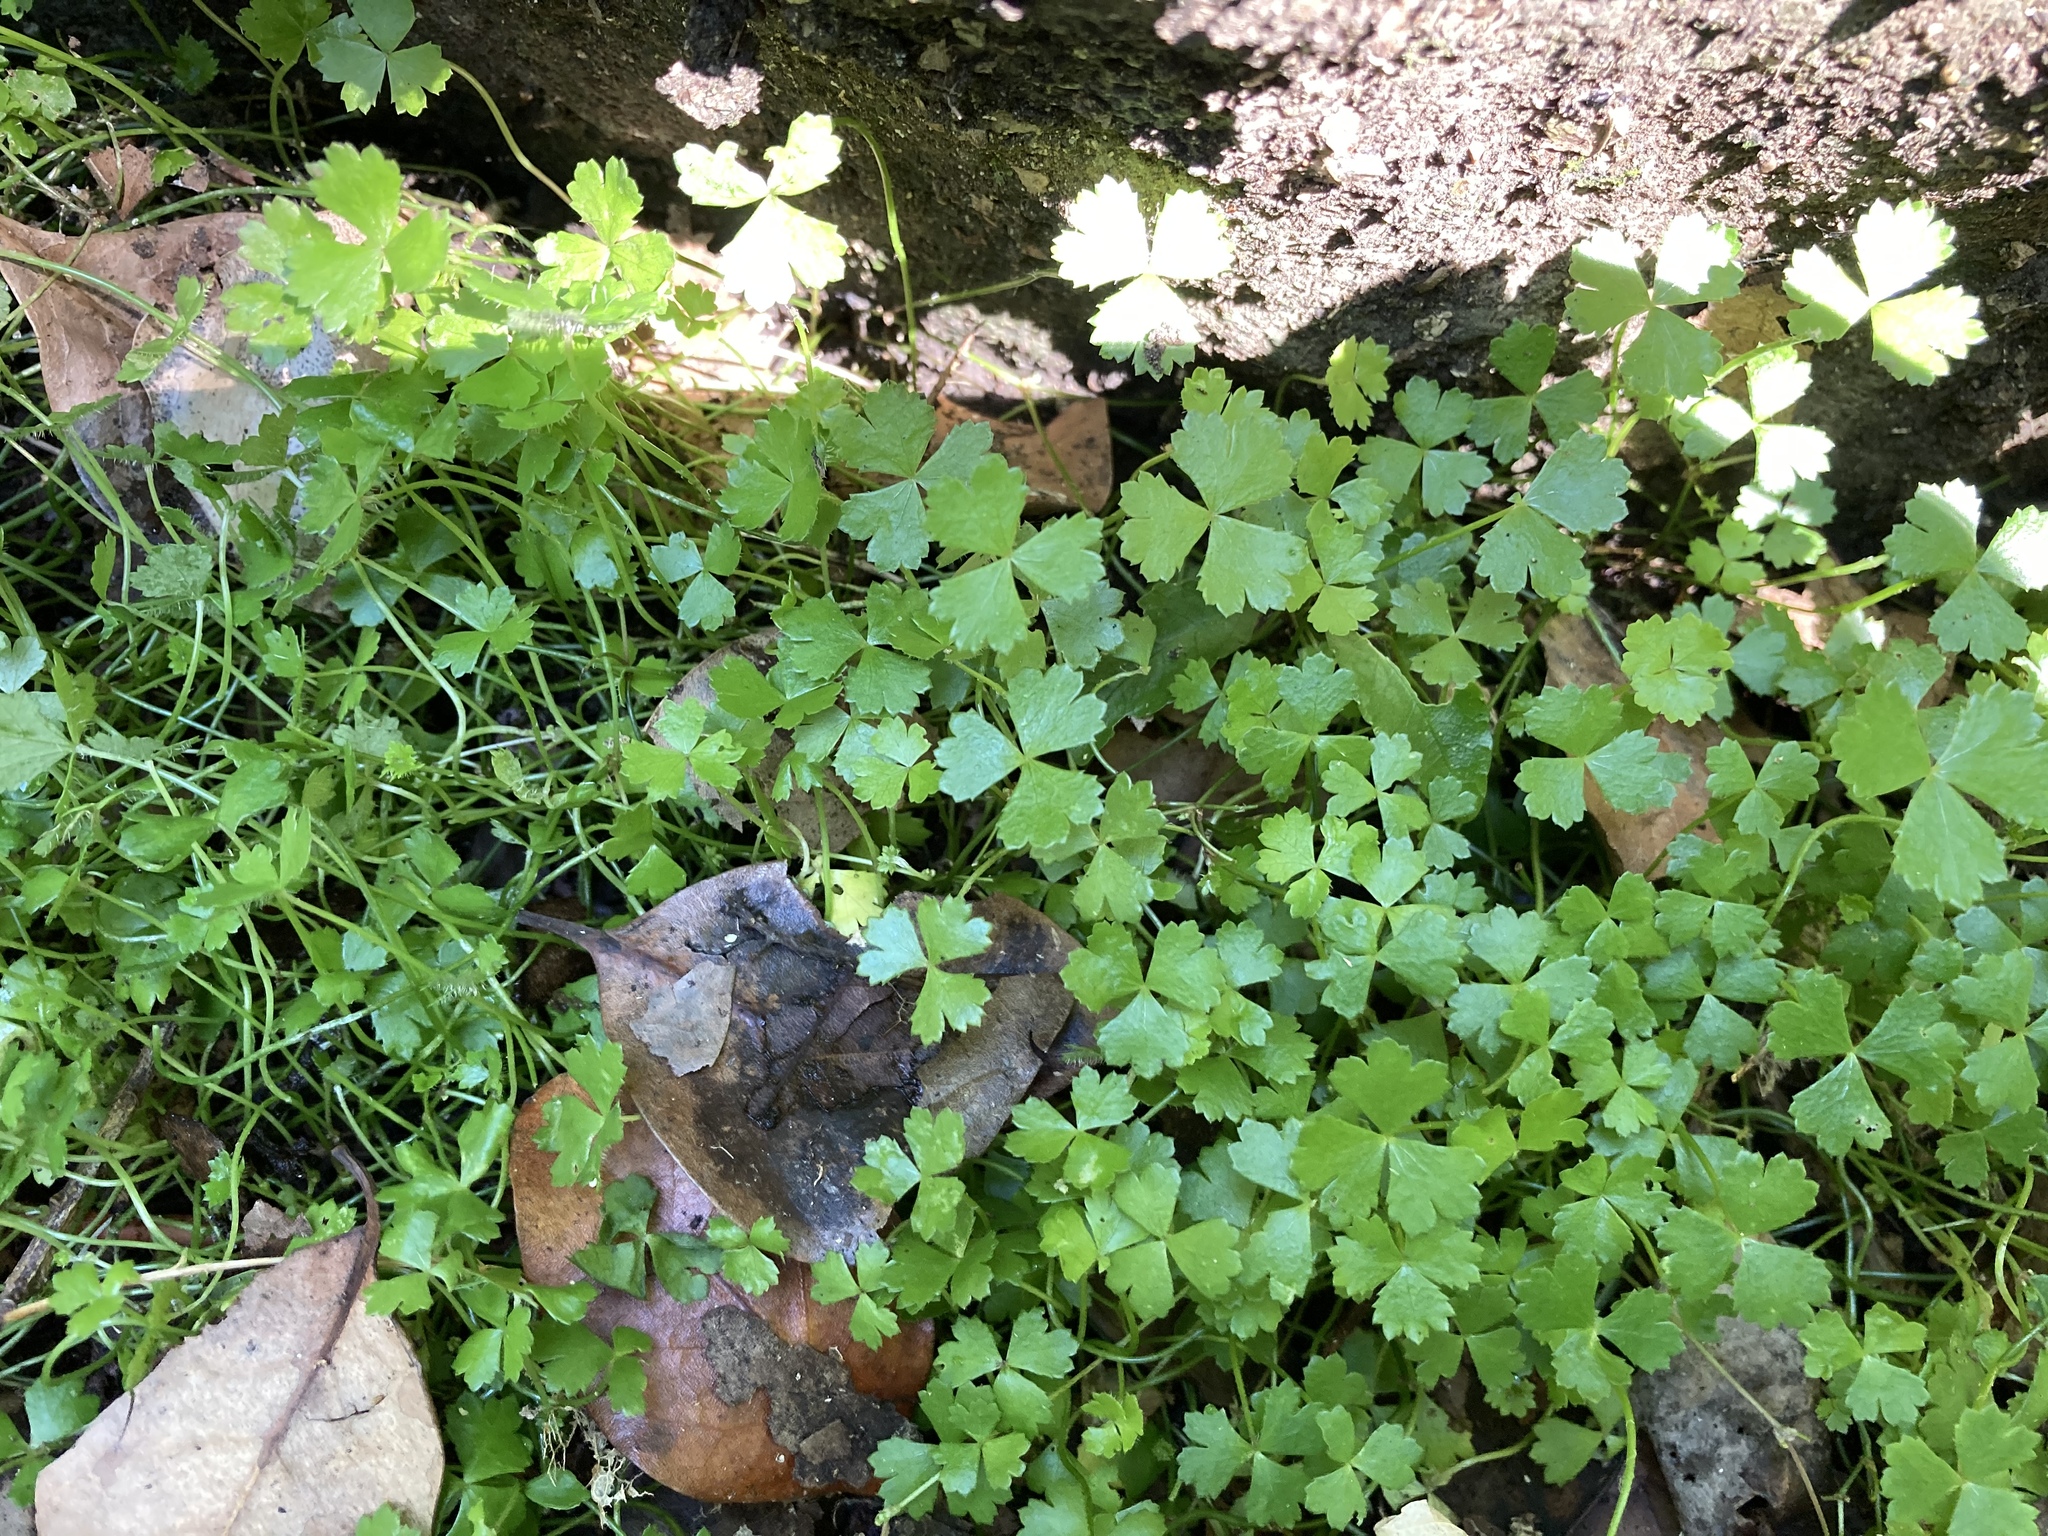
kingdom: Plantae
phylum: Tracheophyta
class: Magnoliopsida
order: Apiales
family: Araliaceae
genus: Hydrocotyle
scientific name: Hydrocotyle tripartita
